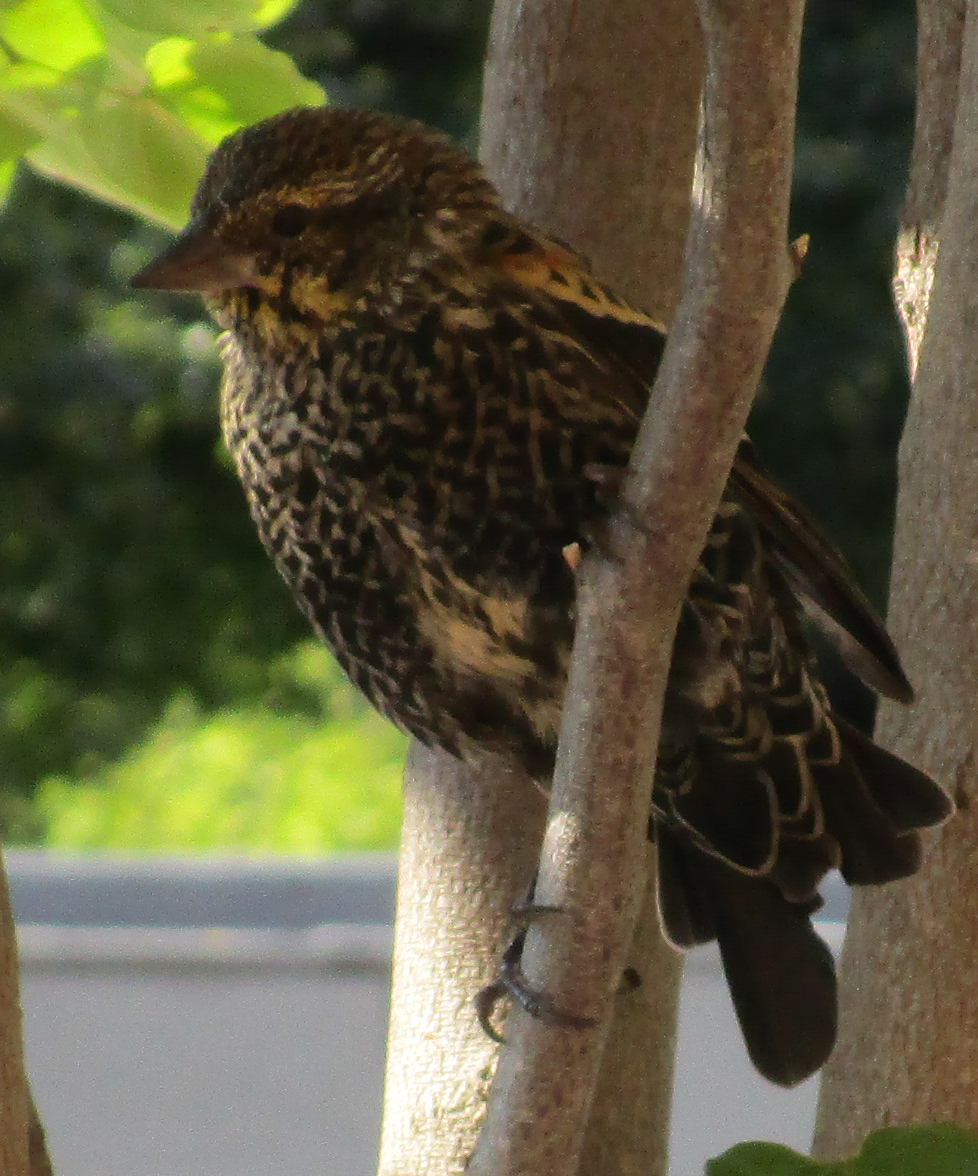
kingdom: Animalia
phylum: Chordata
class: Aves
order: Passeriformes
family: Icteridae
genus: Agelaius
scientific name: Agelaius phoeniceus
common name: Red-winged blackbird
